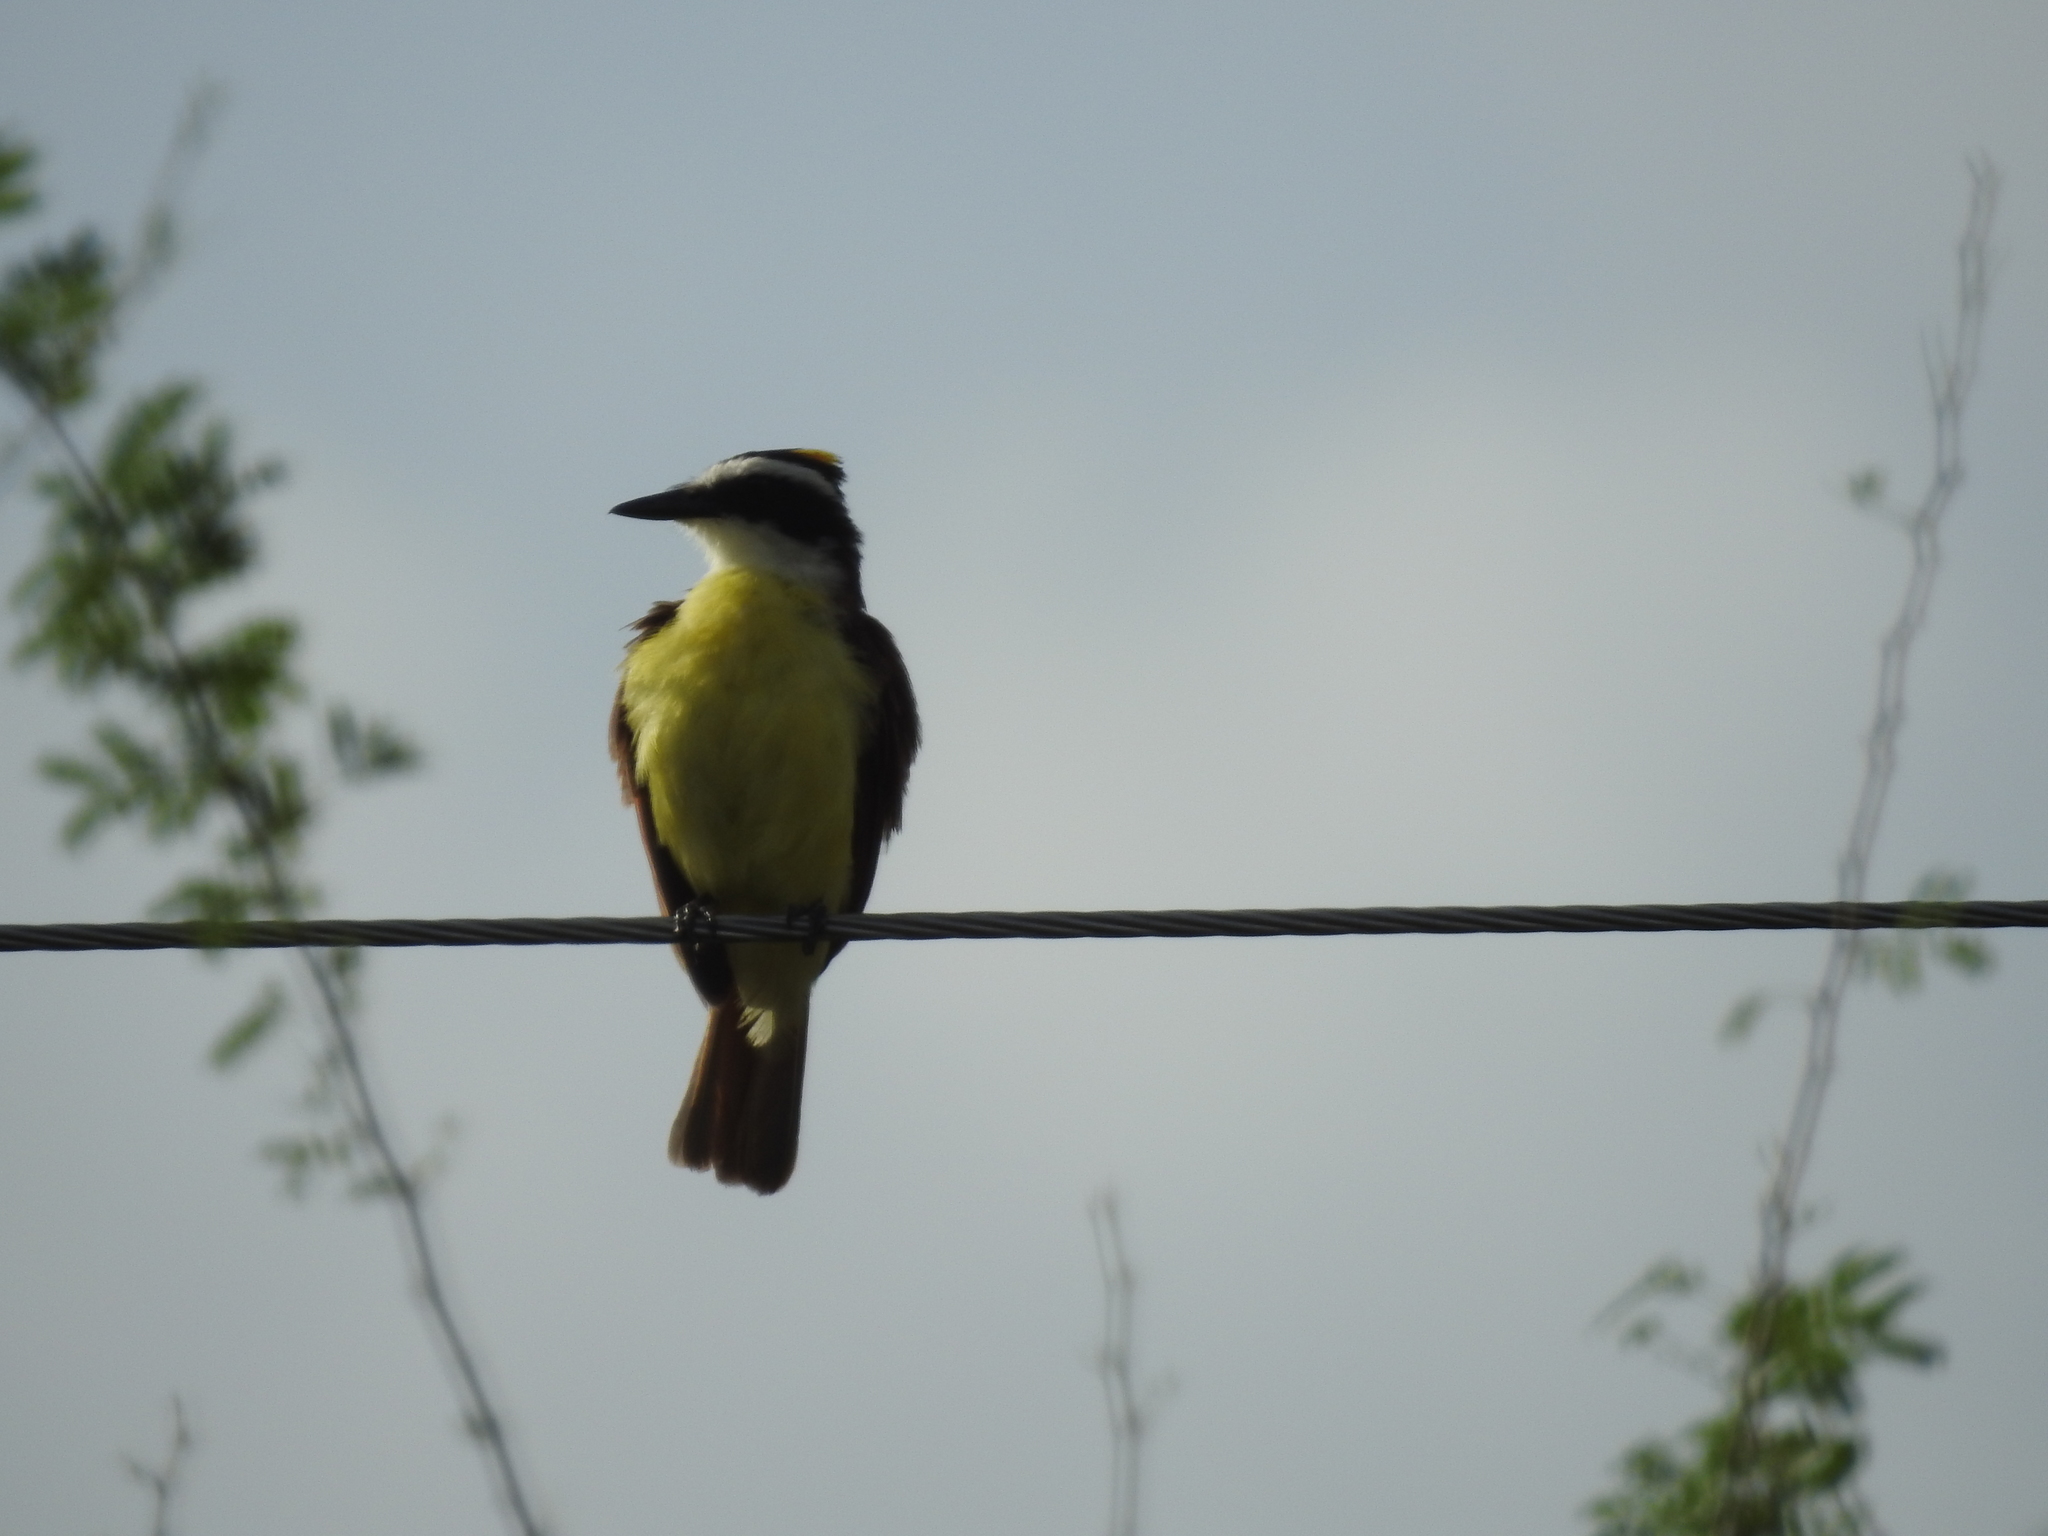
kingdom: Animalia
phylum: Chordata
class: Aves
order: Passeriformes
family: Tyrannidae
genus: Pitangus
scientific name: Pitangus sulphuratus
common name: Great kiskadee
